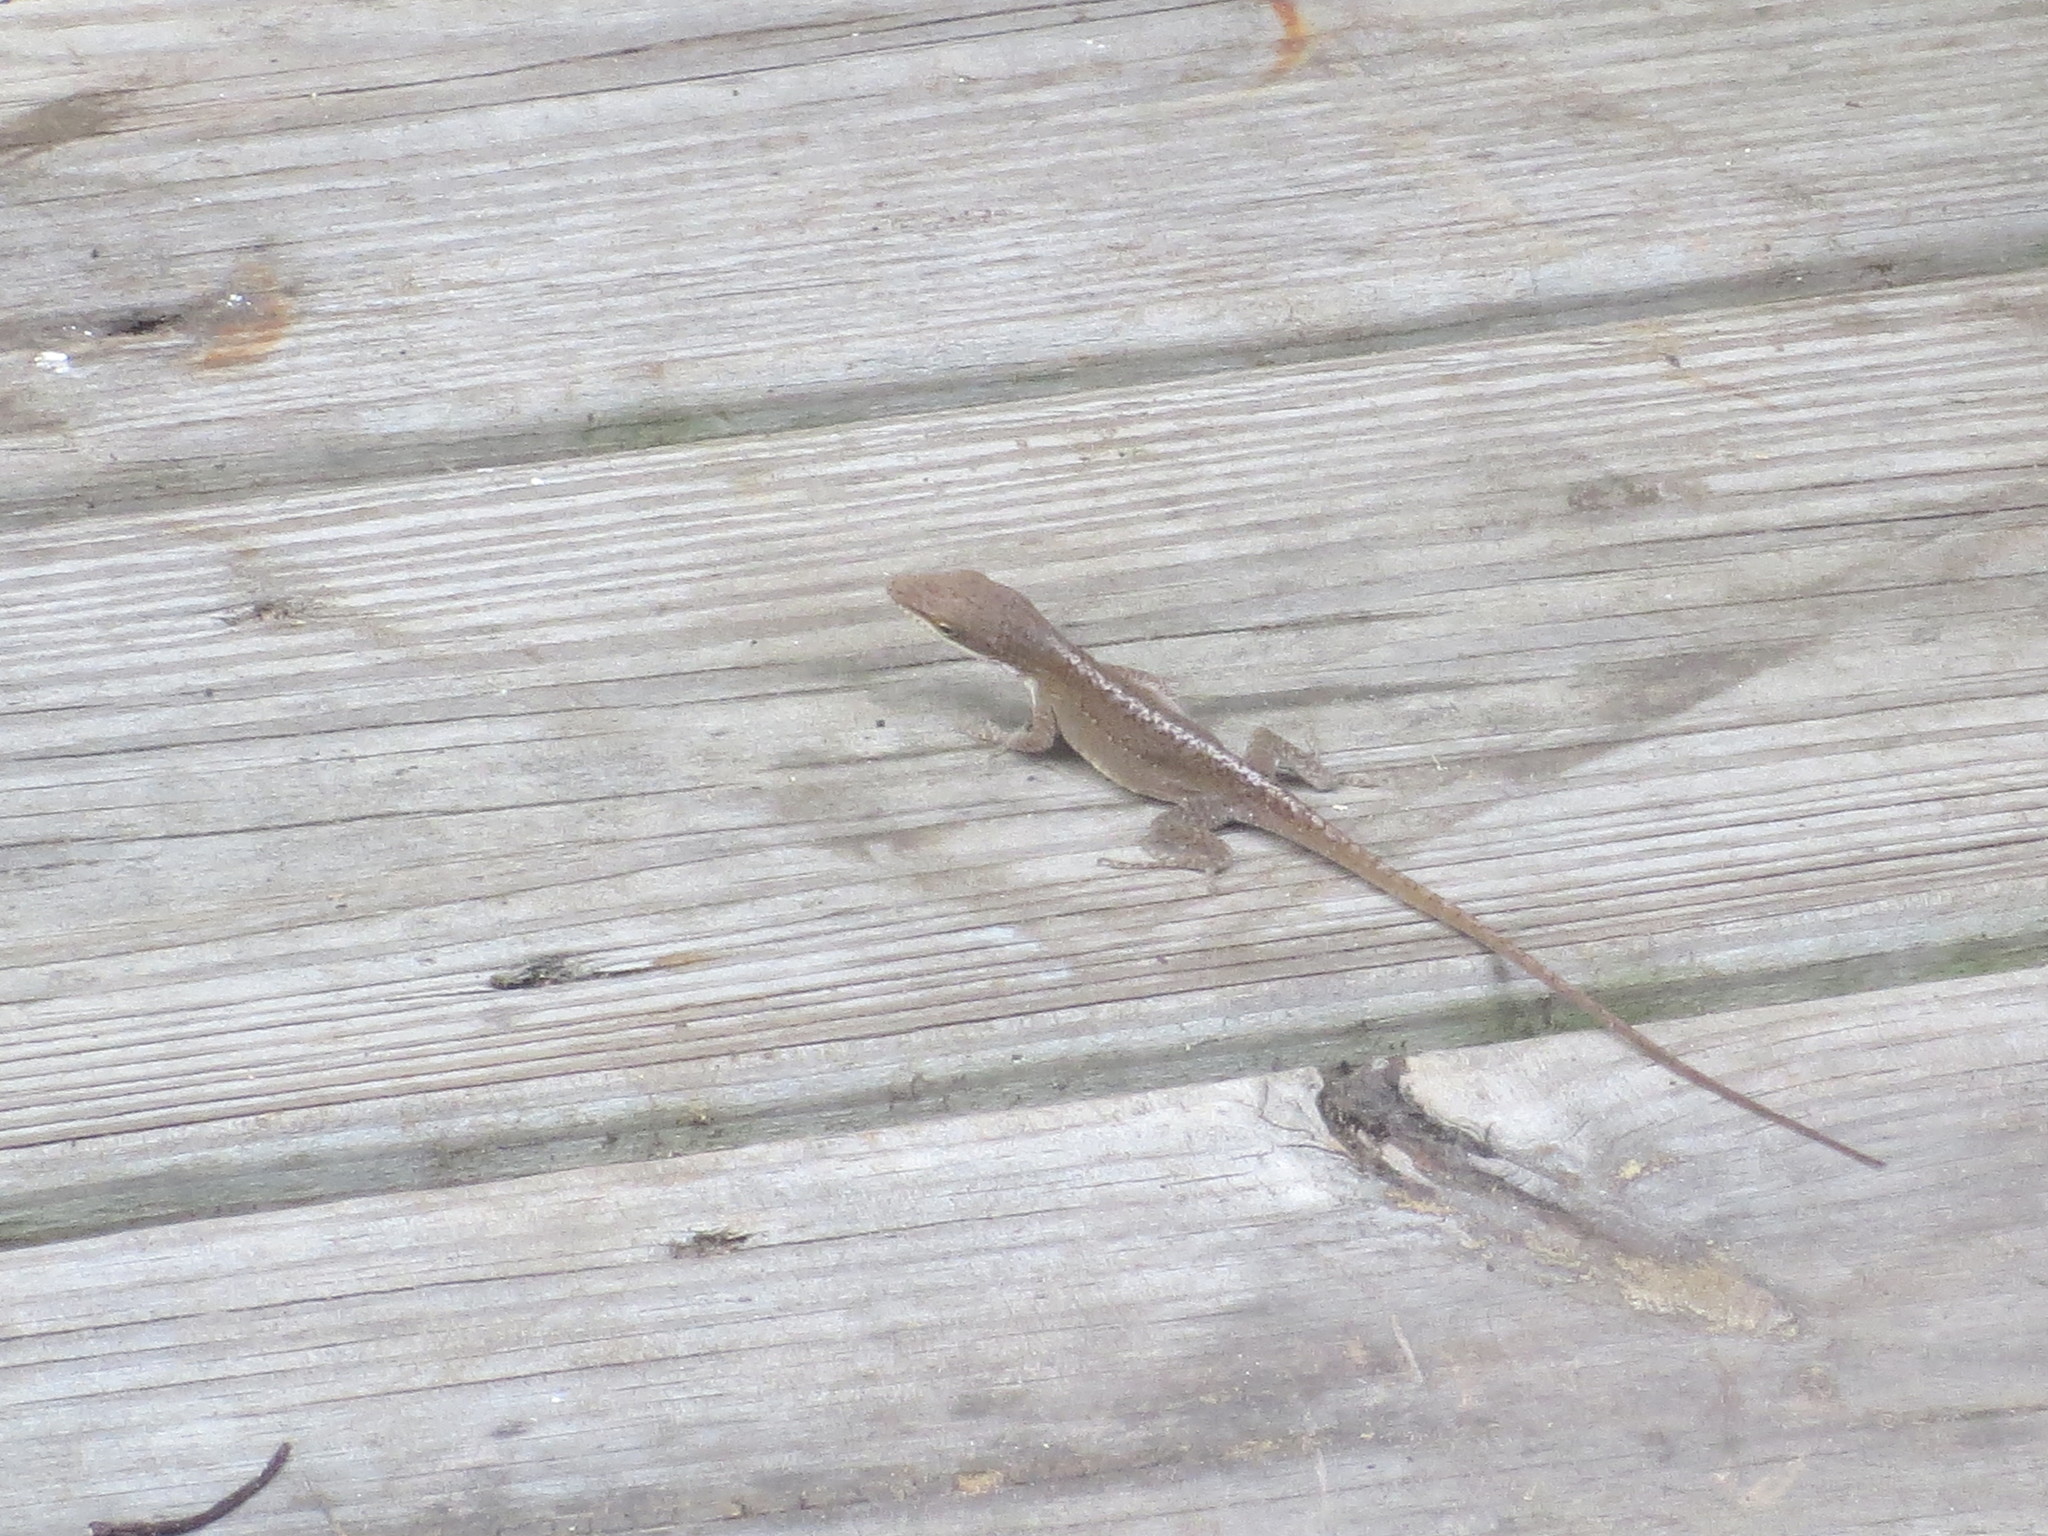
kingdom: Animalia
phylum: Chordata
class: Squamata
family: Dactyloidae
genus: Anolis
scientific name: Anolis carolinensis
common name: Green anole
